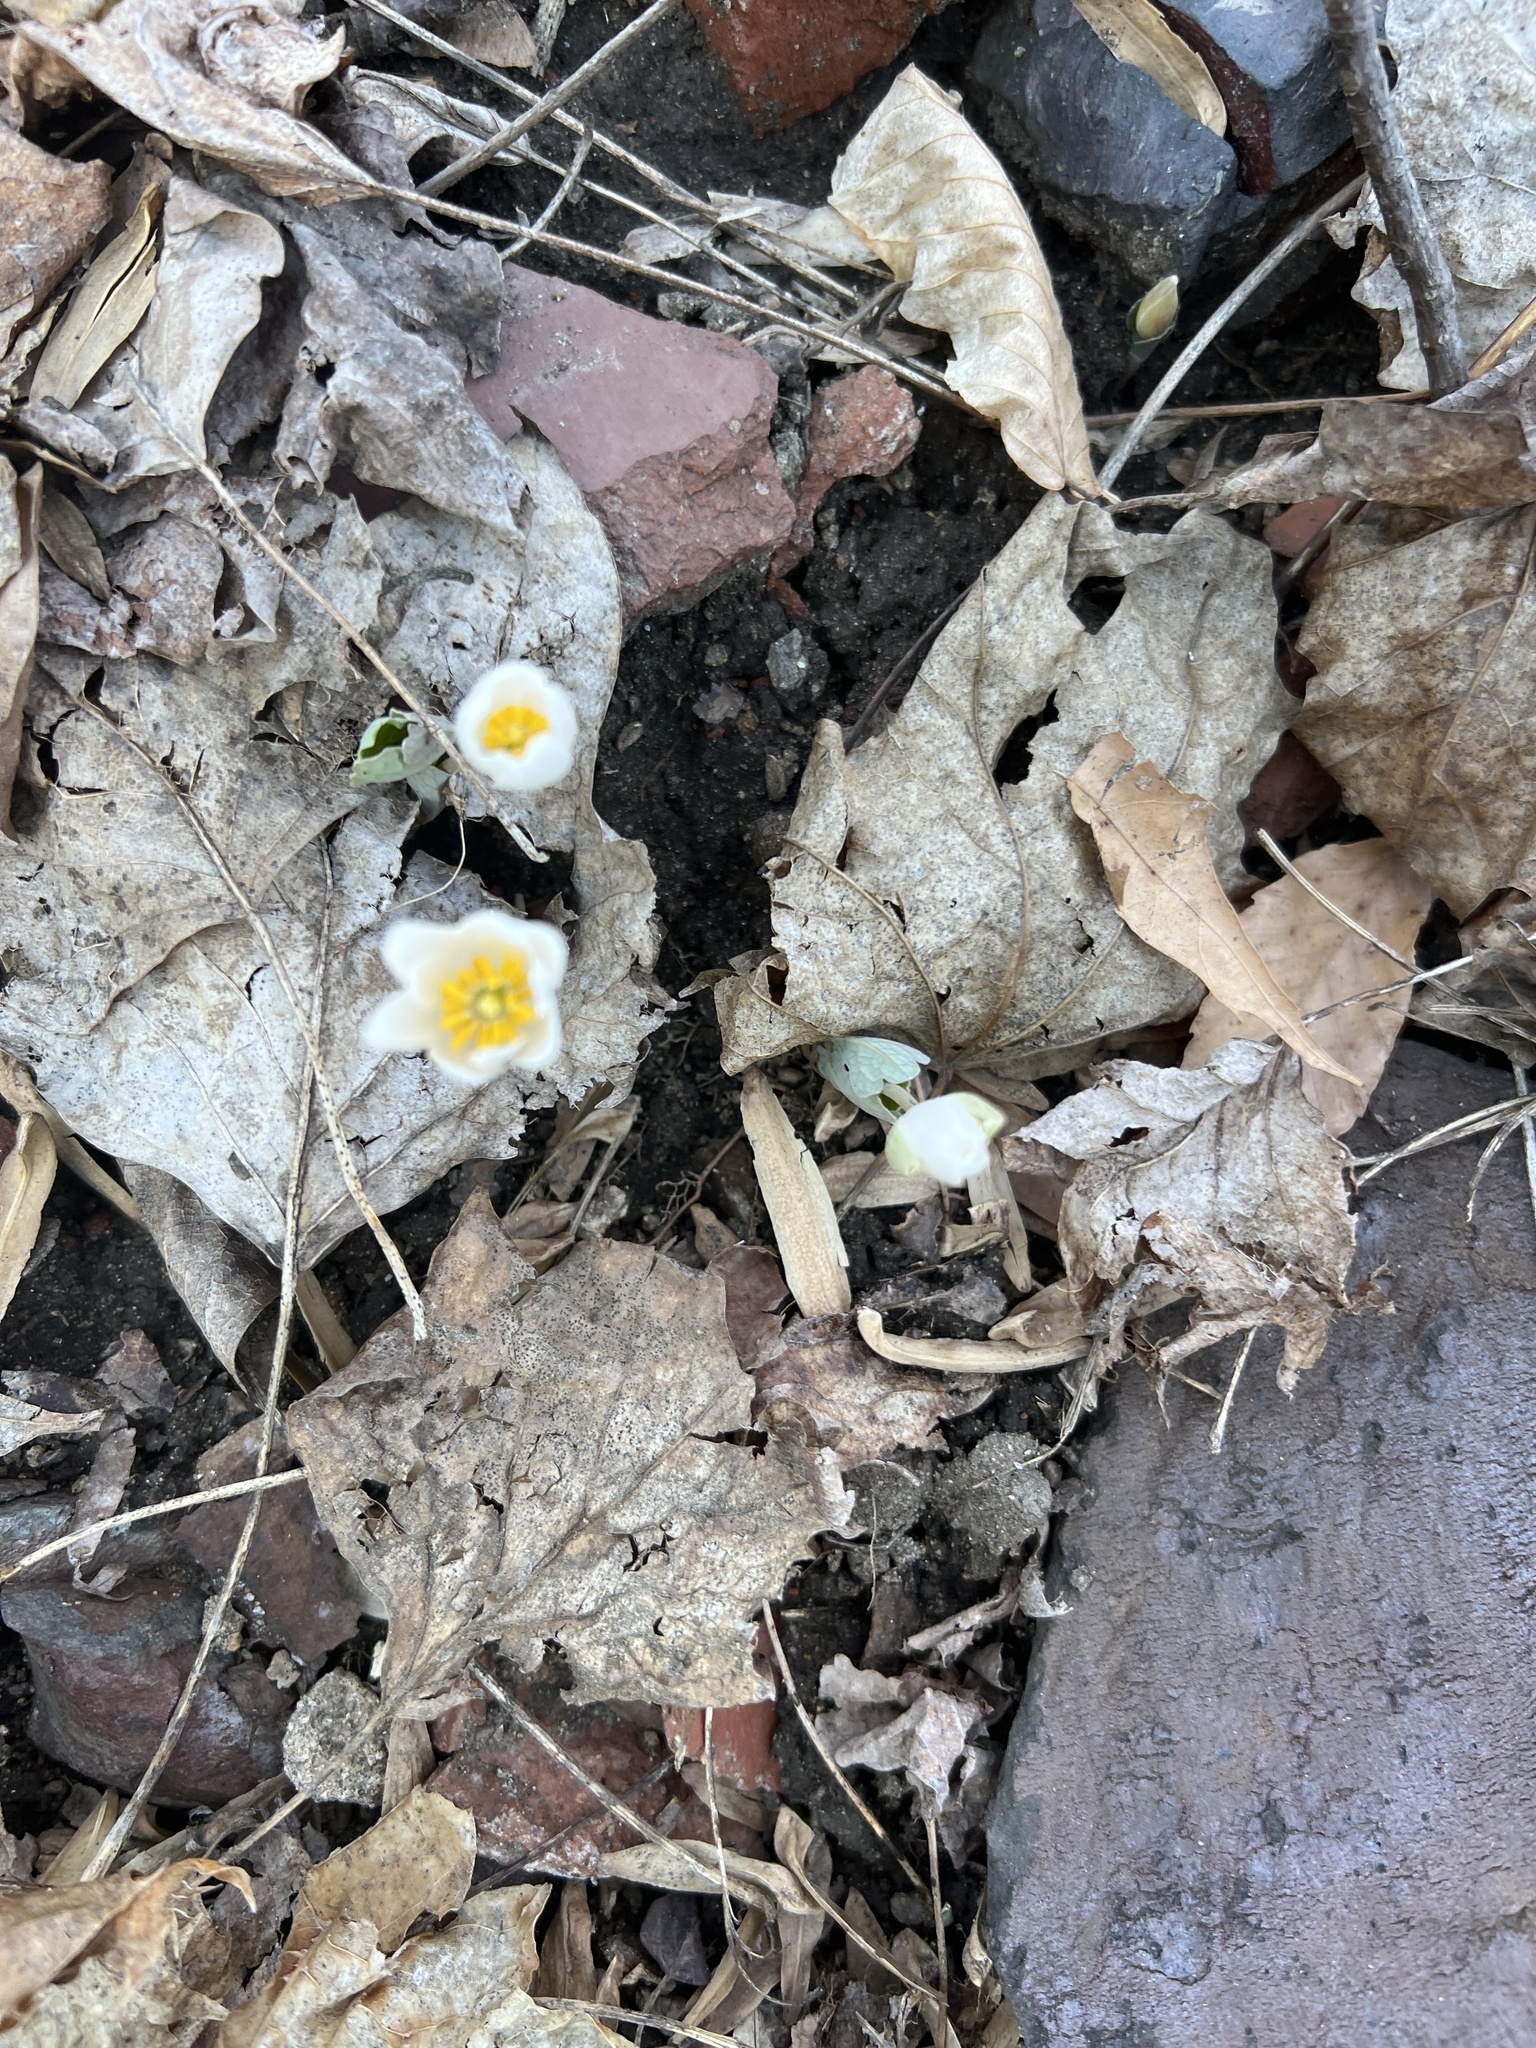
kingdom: Plantae
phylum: Tracheophyta
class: Magnoliopsida
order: Ranunculales
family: Papaveraceae
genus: Sanguinaria
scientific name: Sanguinaria canadensis
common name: Bloodroot
